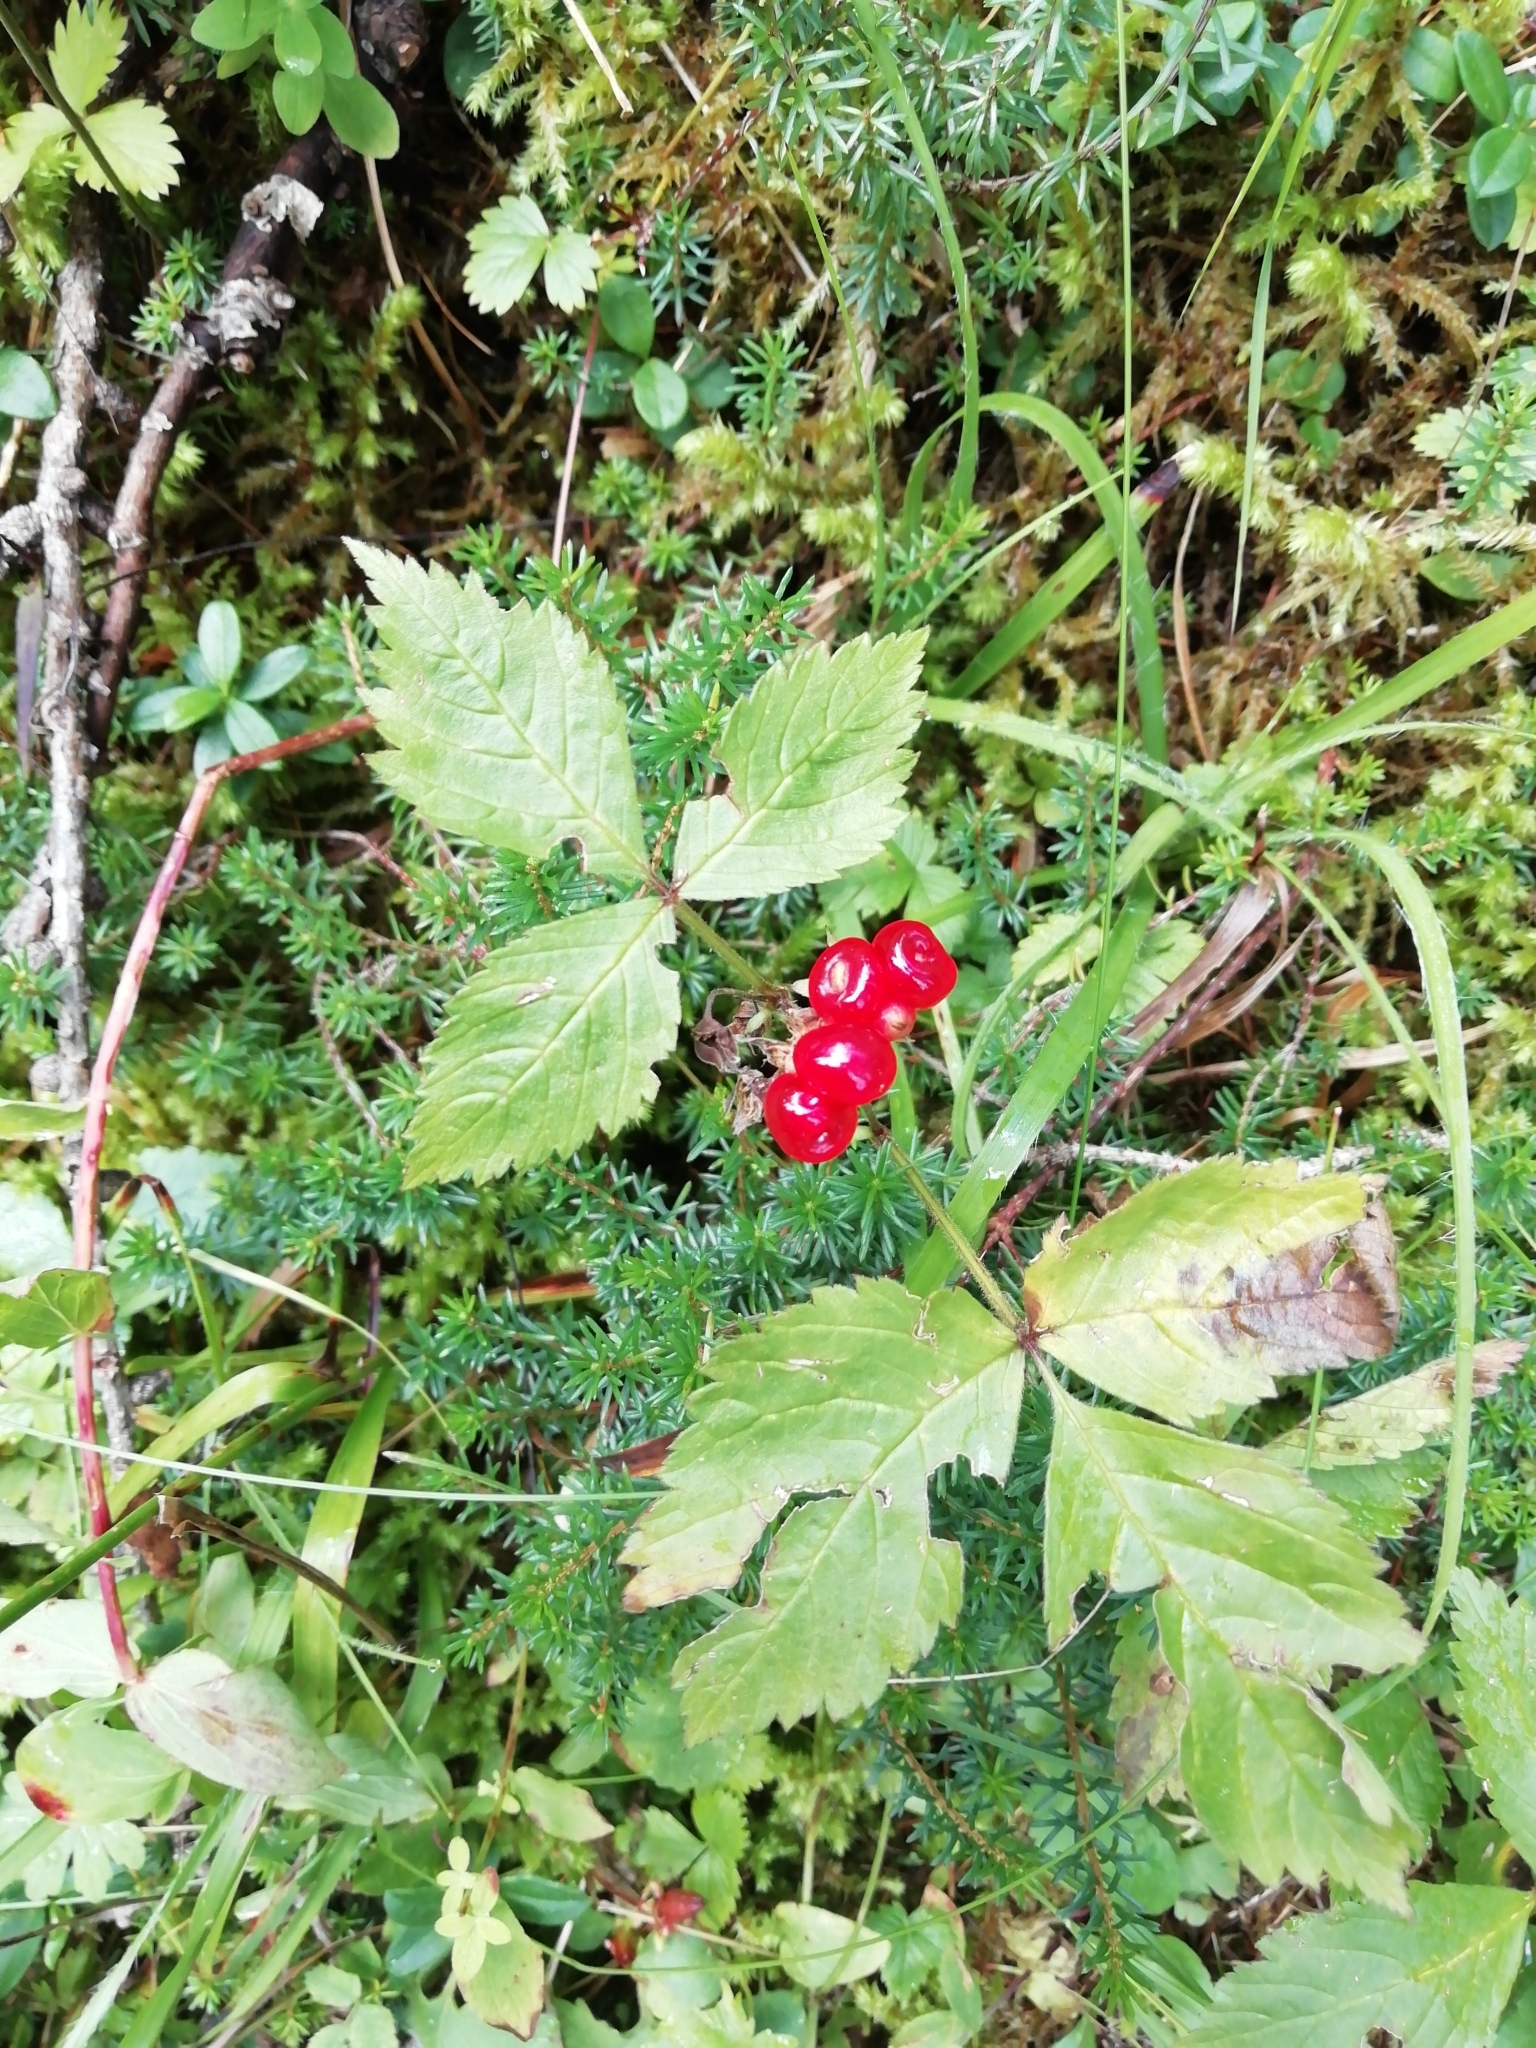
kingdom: Plantae
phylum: Tracheophyta
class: Magnoliopsida
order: Rosales
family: Rosaceae
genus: Rubus
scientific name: Rubus saxatilis
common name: Stone bramble
